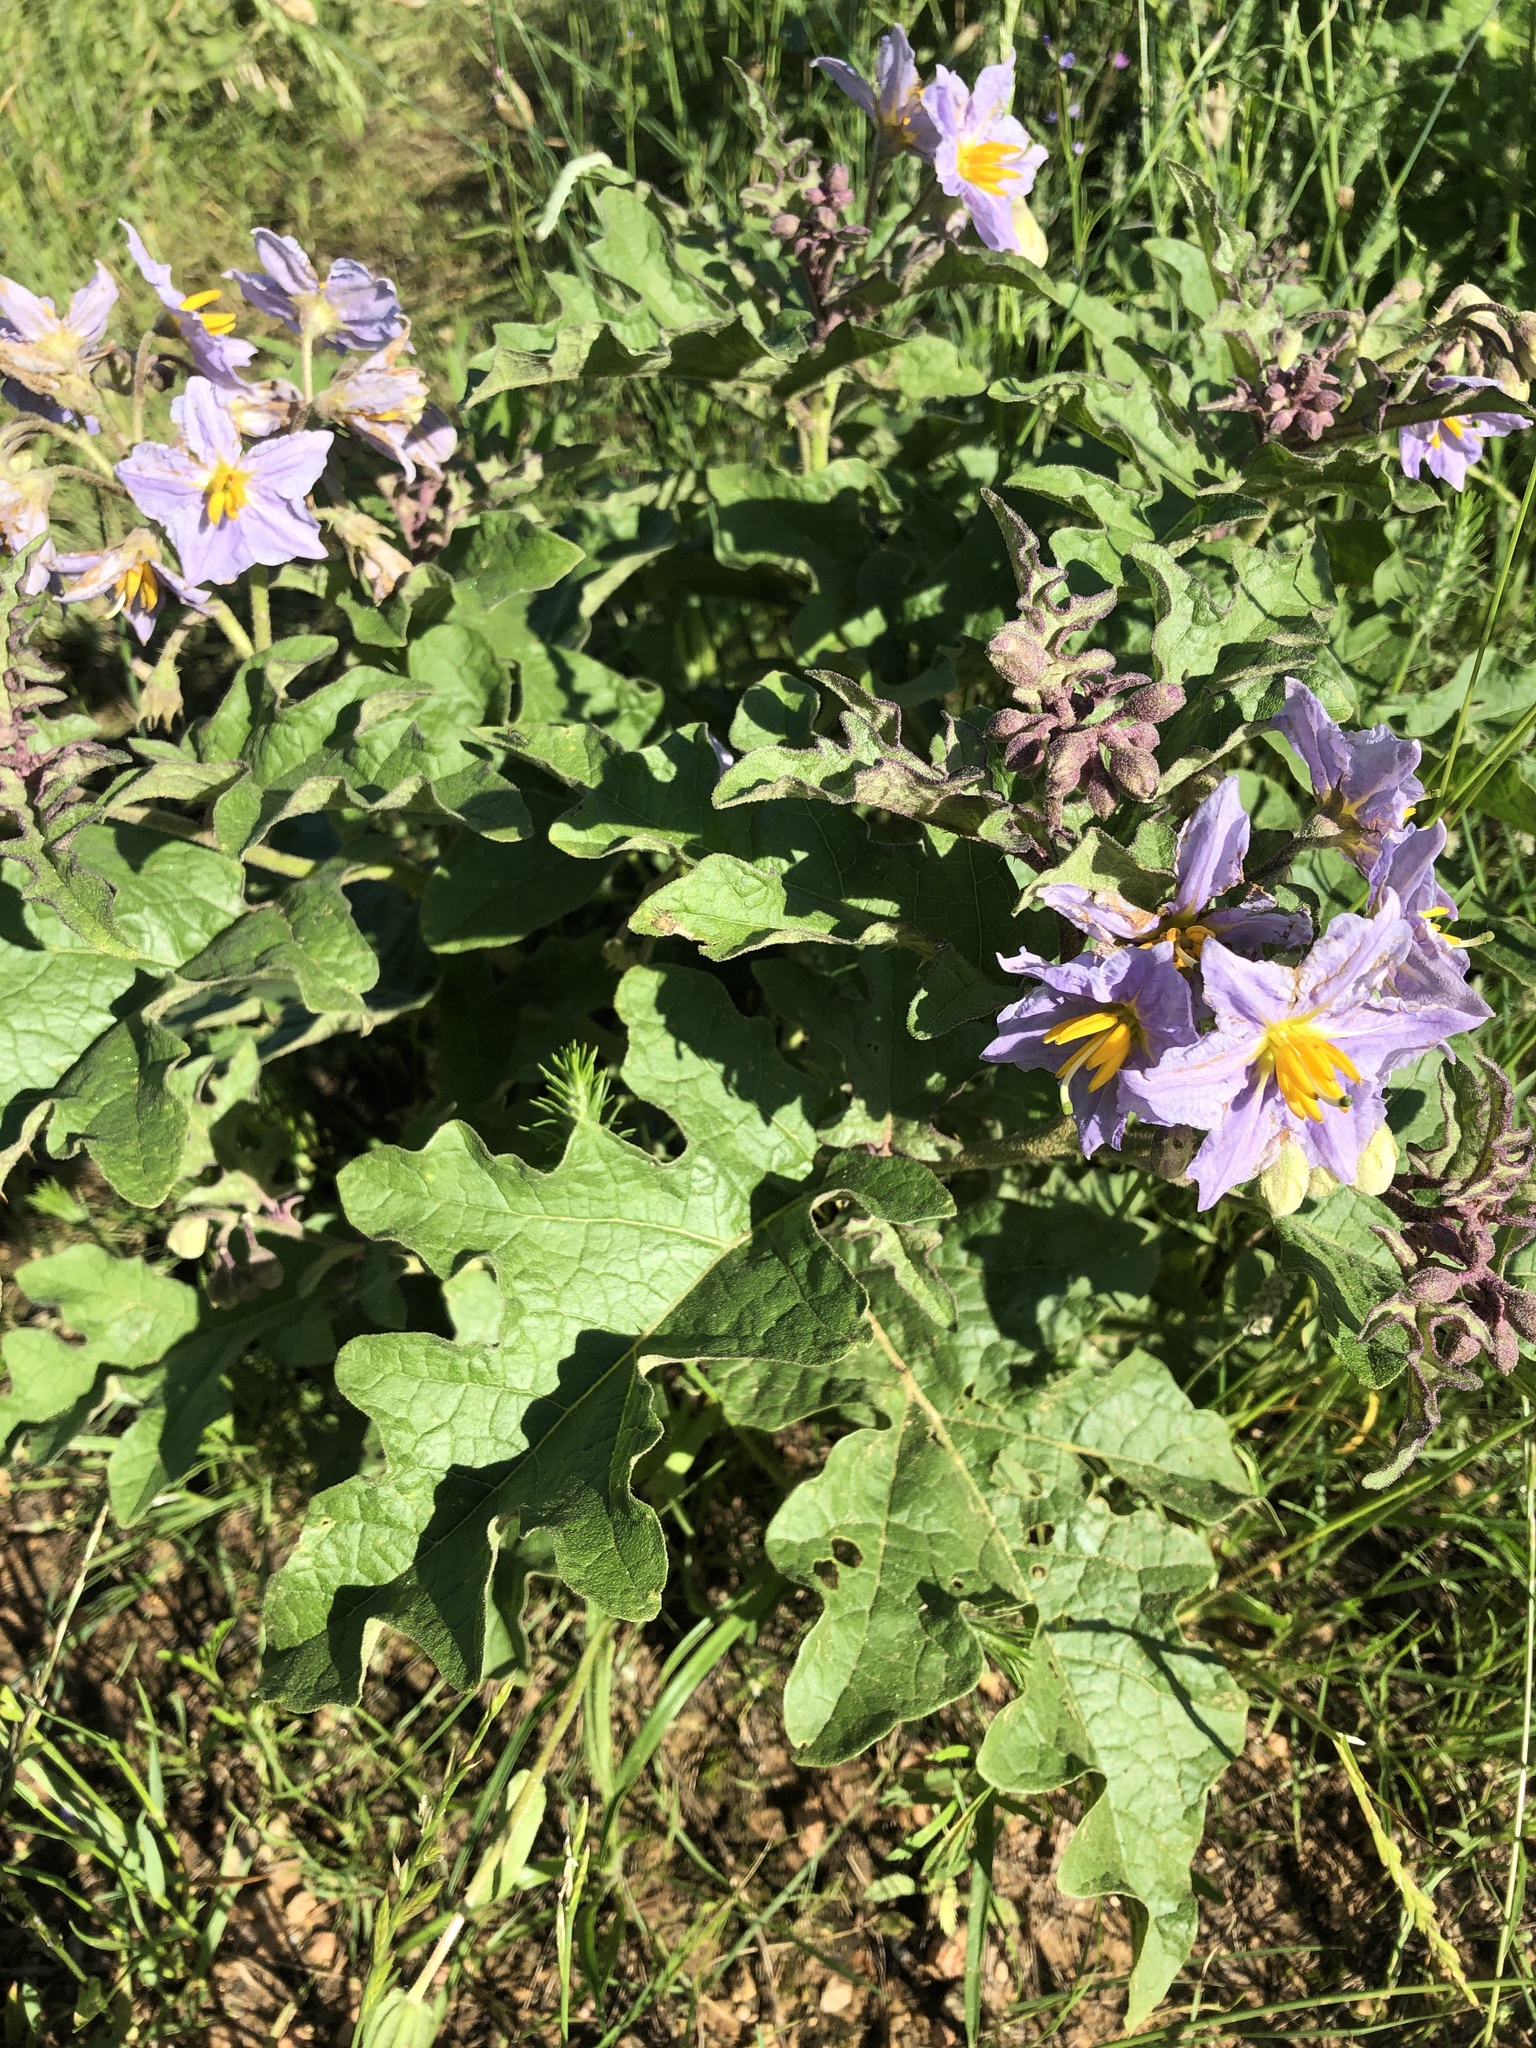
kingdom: Plantae
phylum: Tracheophyta
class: Magnoliopsida
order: Solanales
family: Solanaceae
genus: Solanum
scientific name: Solanum dimidiatum
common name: Carolina horse-nettle
